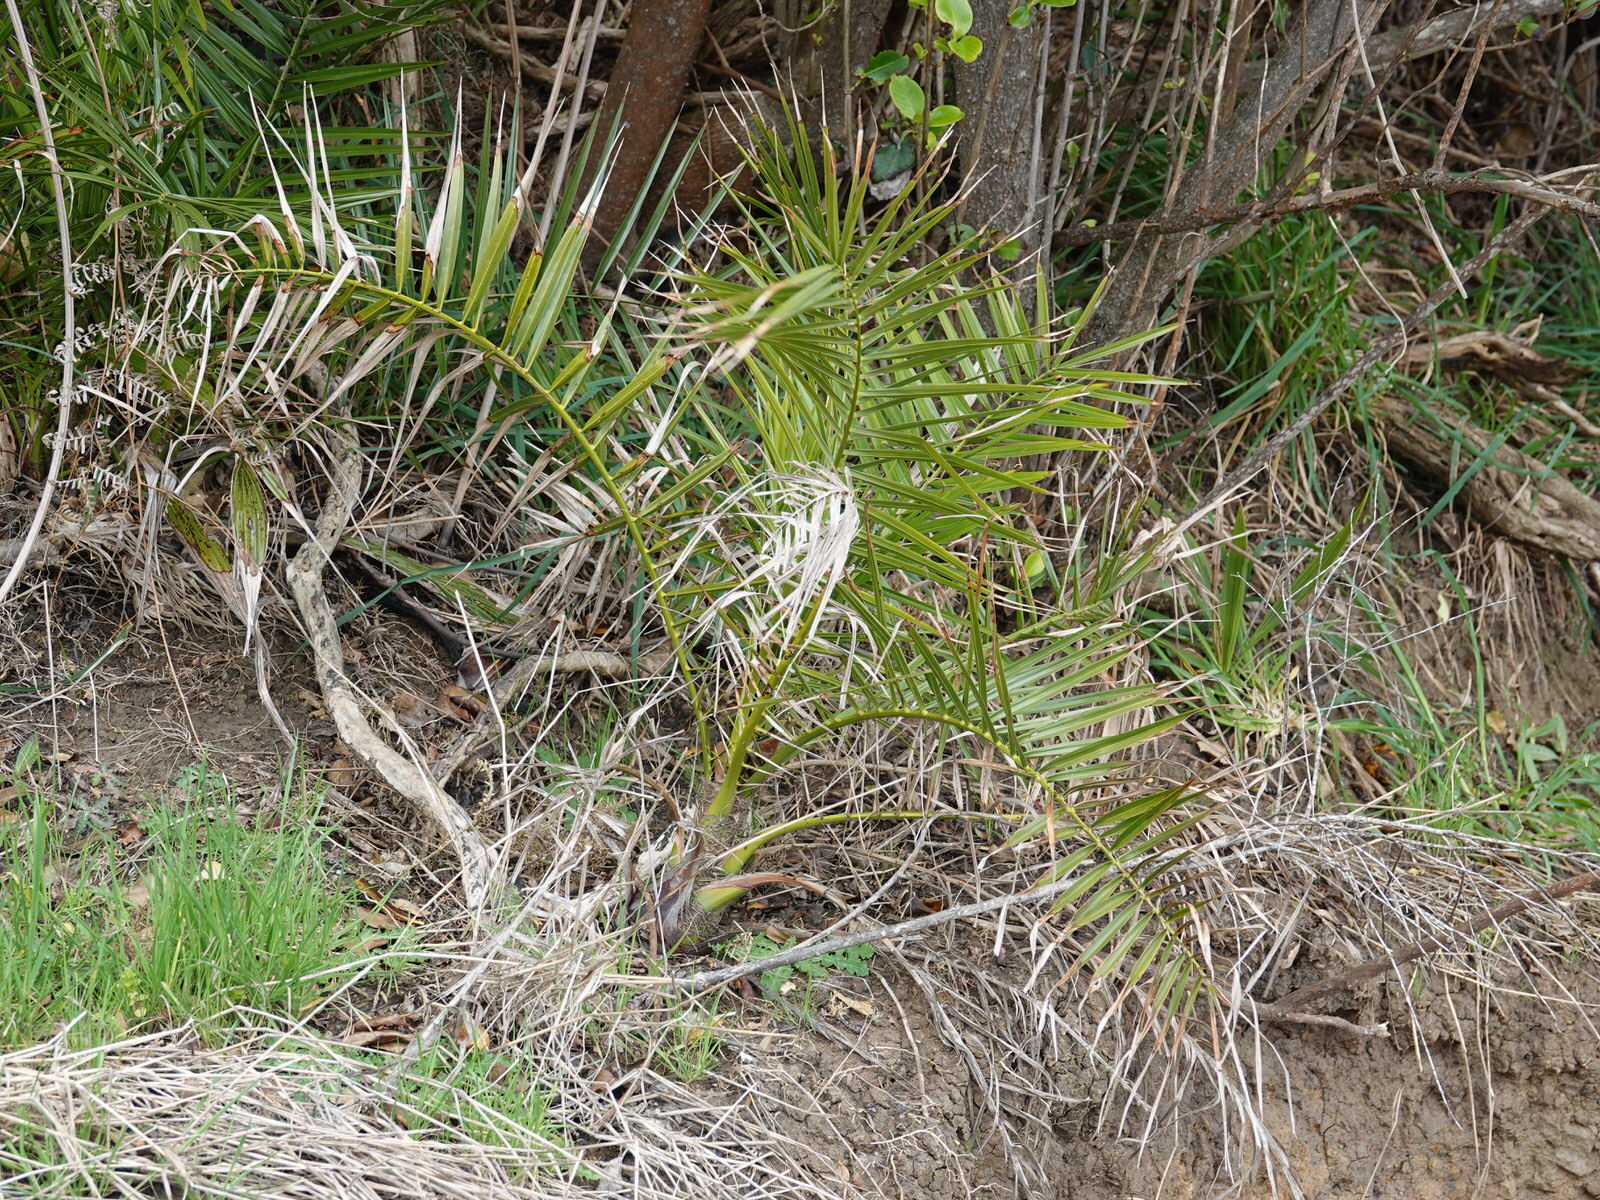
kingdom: Plantae
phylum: Tracheophyta
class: Liliopsida
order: Arecales
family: Arecaceae
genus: Phoenix
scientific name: Phoenix canariensis
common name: Canary island date palm
